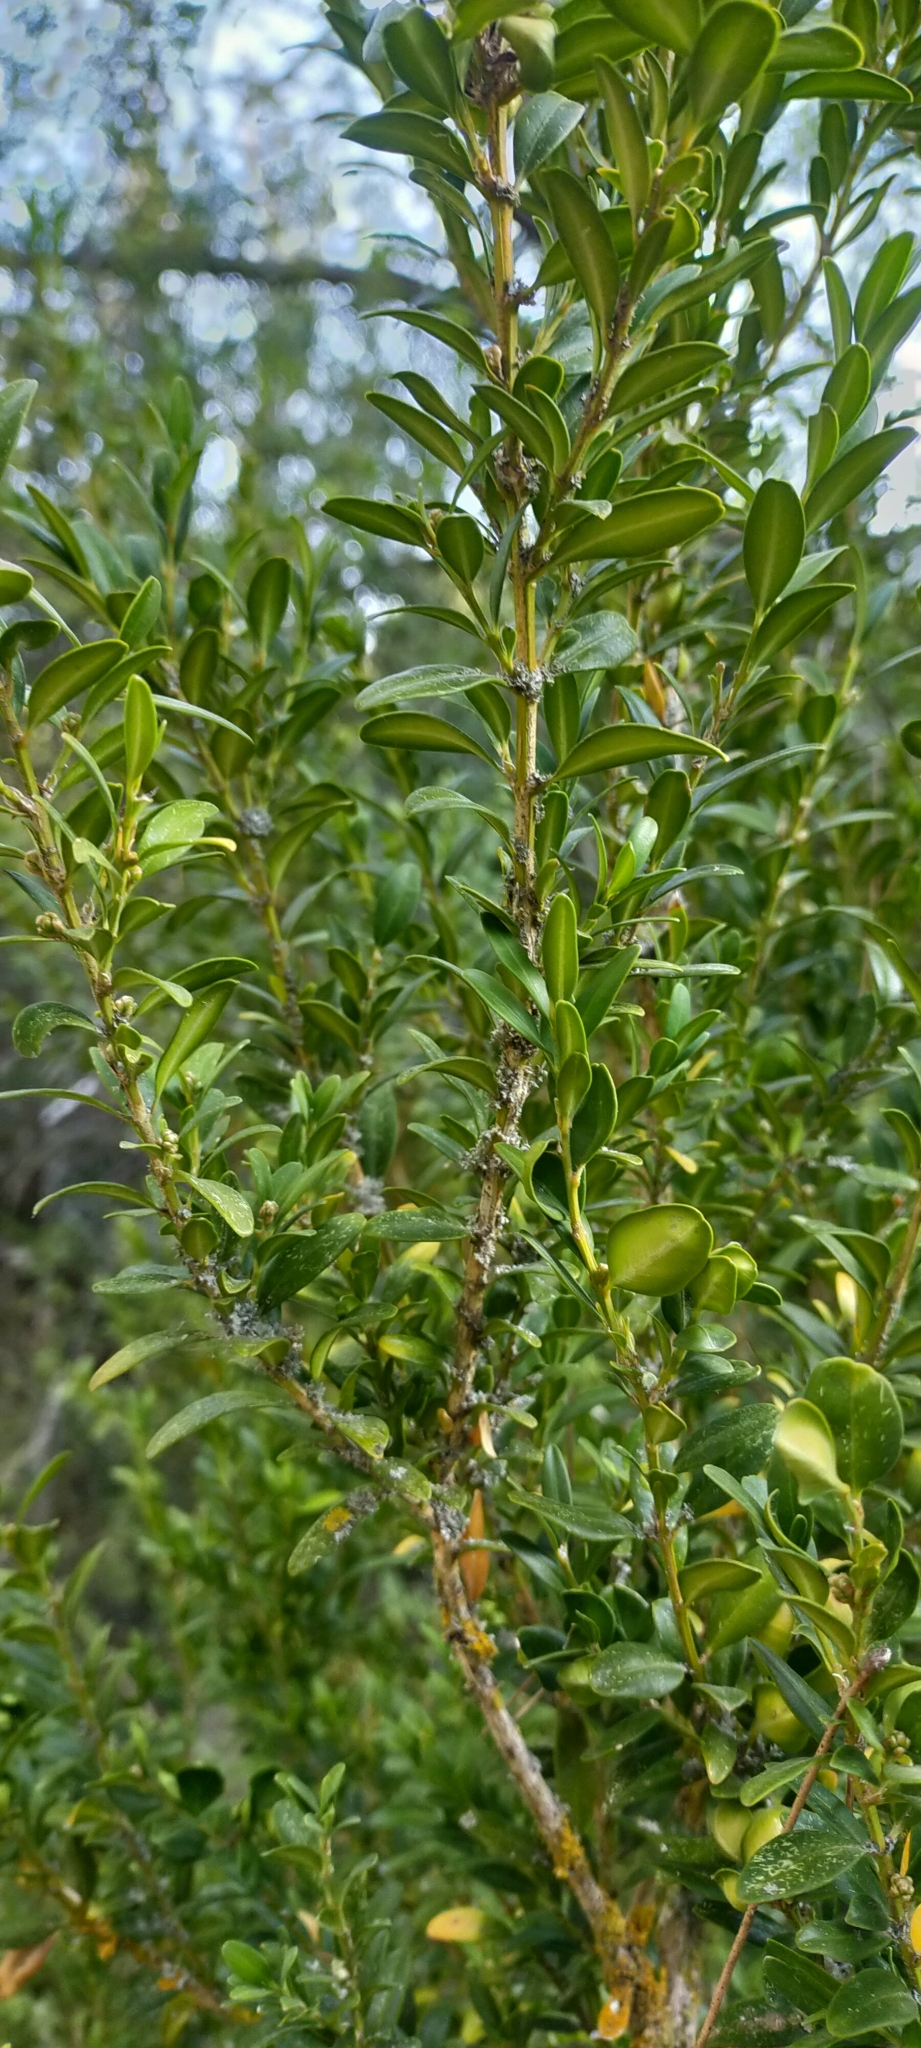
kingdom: Plantae
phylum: Tracheophyta
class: Magnoliopsida
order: Buxales
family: Buxaceae
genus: Buxus
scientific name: Buxus sempervirens
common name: Box
